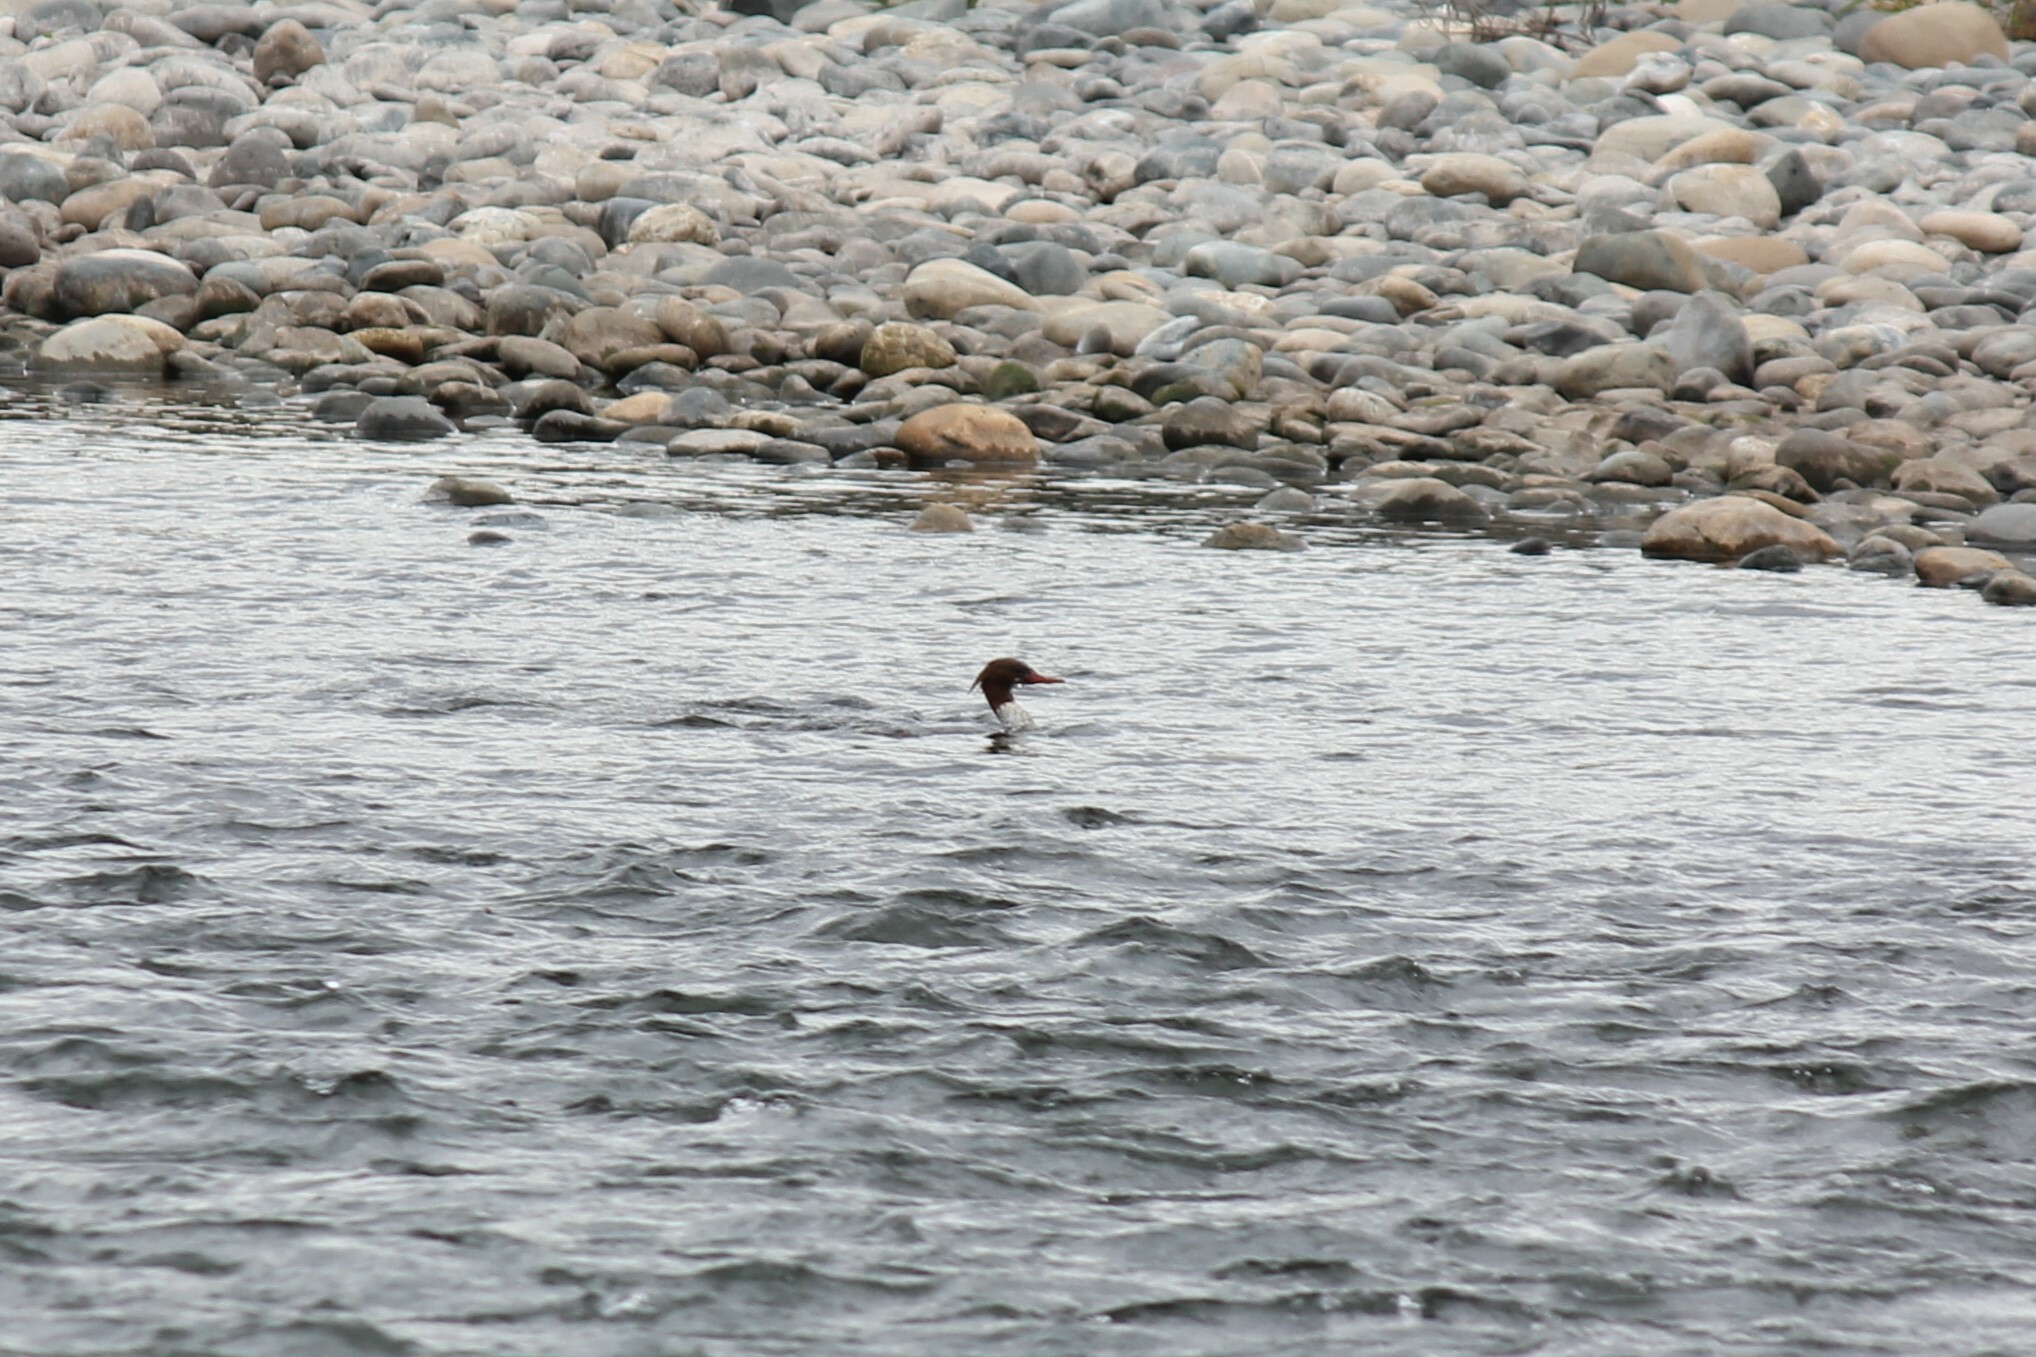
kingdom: Animalia
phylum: Chordata
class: Aves
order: Anseriformes
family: Anatidae
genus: Mergus
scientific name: Mergus merganser
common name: Common merganser
